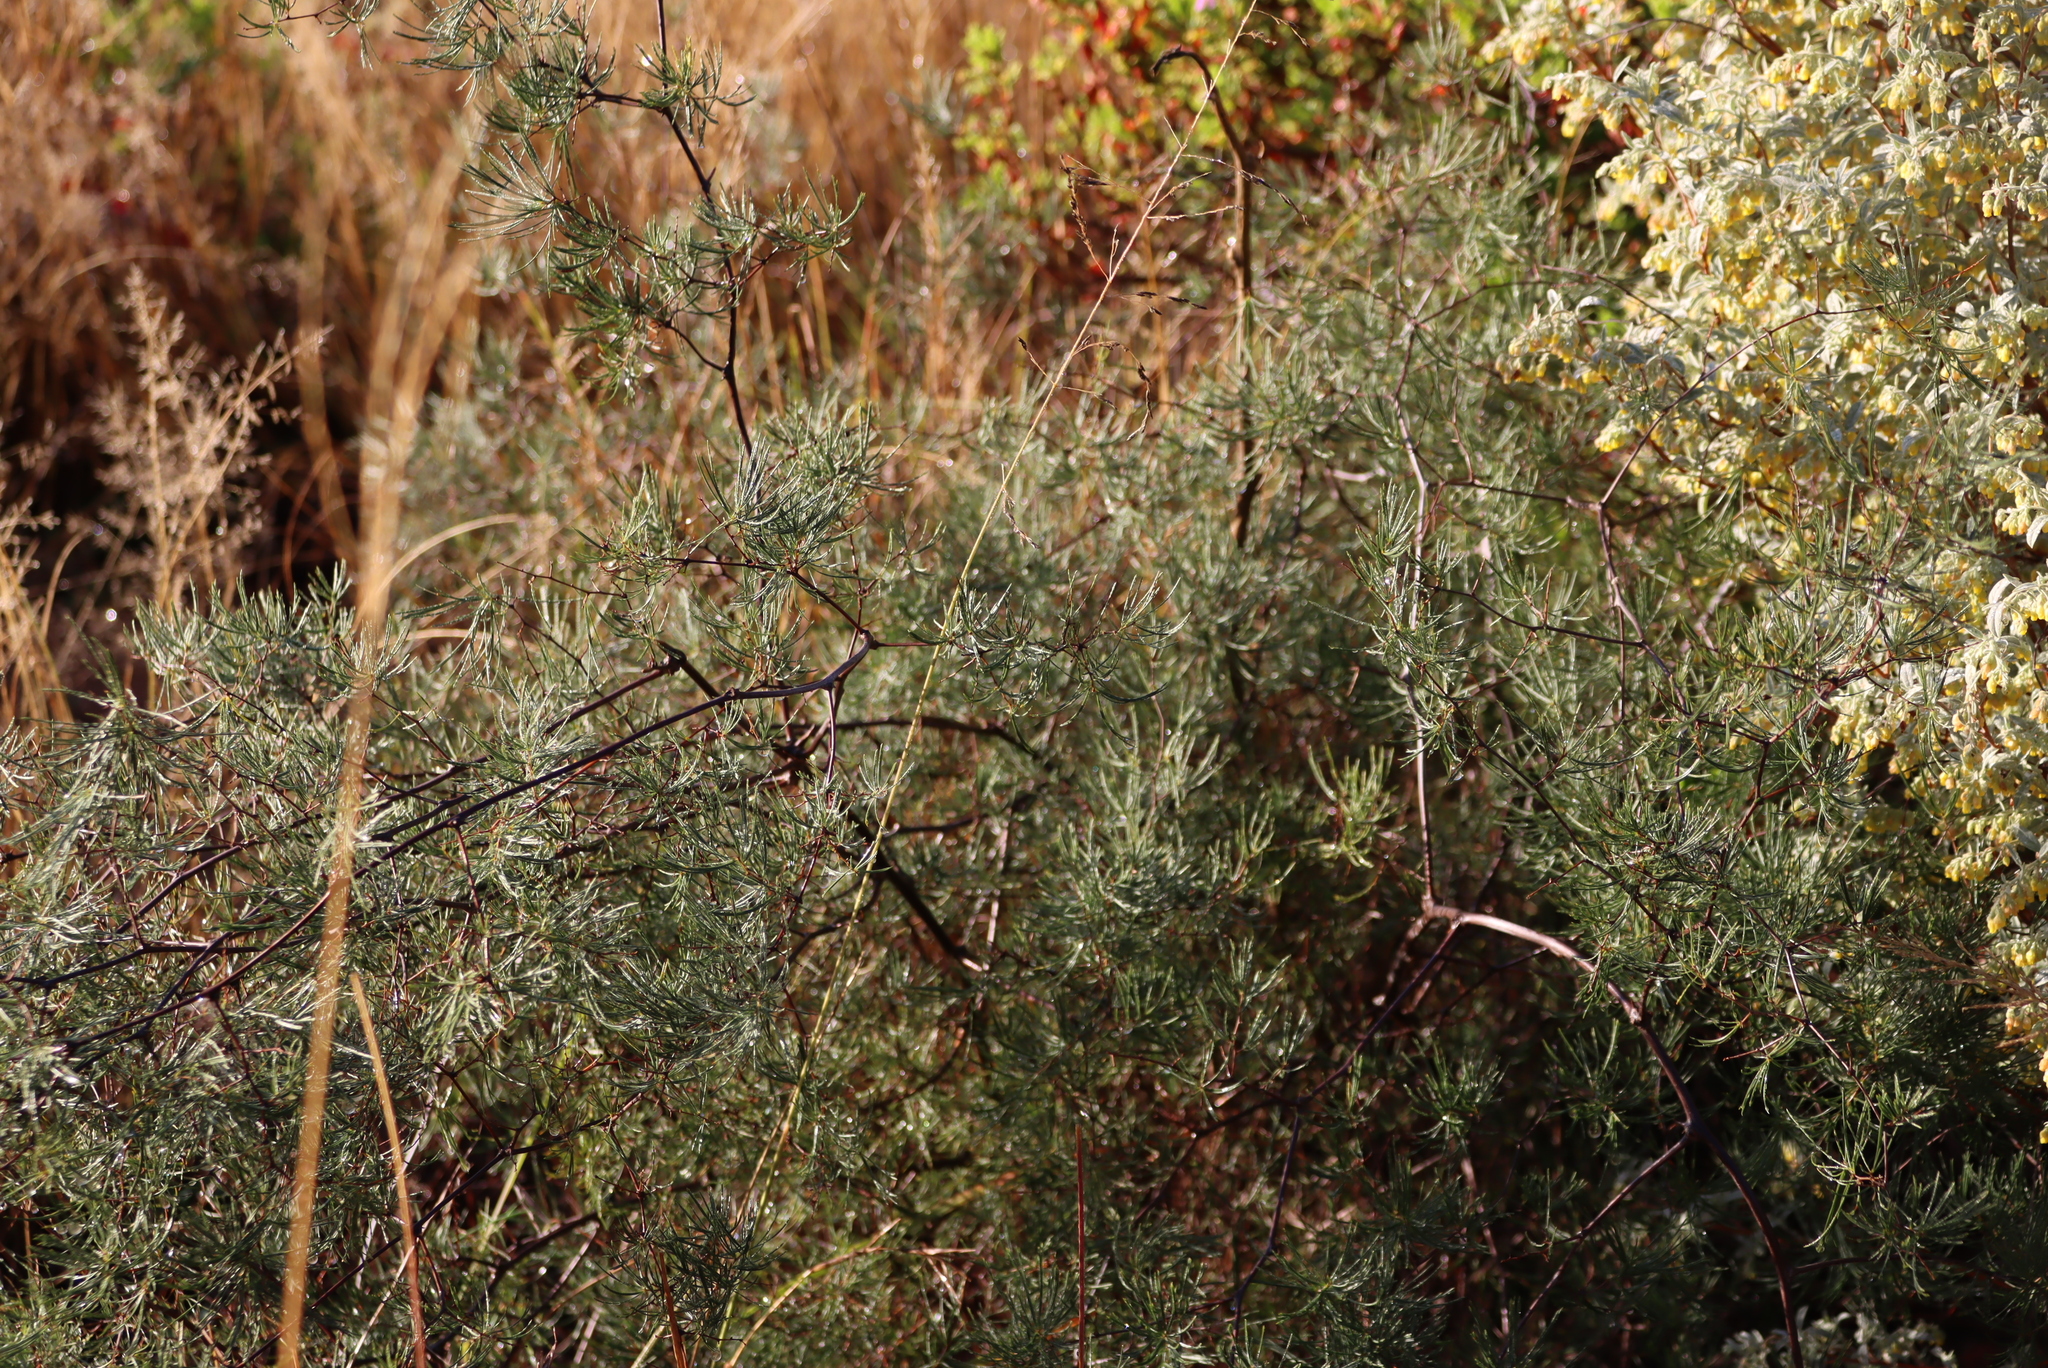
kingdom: Plantae
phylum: Tracheophyta
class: Liliopsida
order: Asparagales
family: Asparagaceae
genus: Asparagus
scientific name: Asparagus retrofractus
